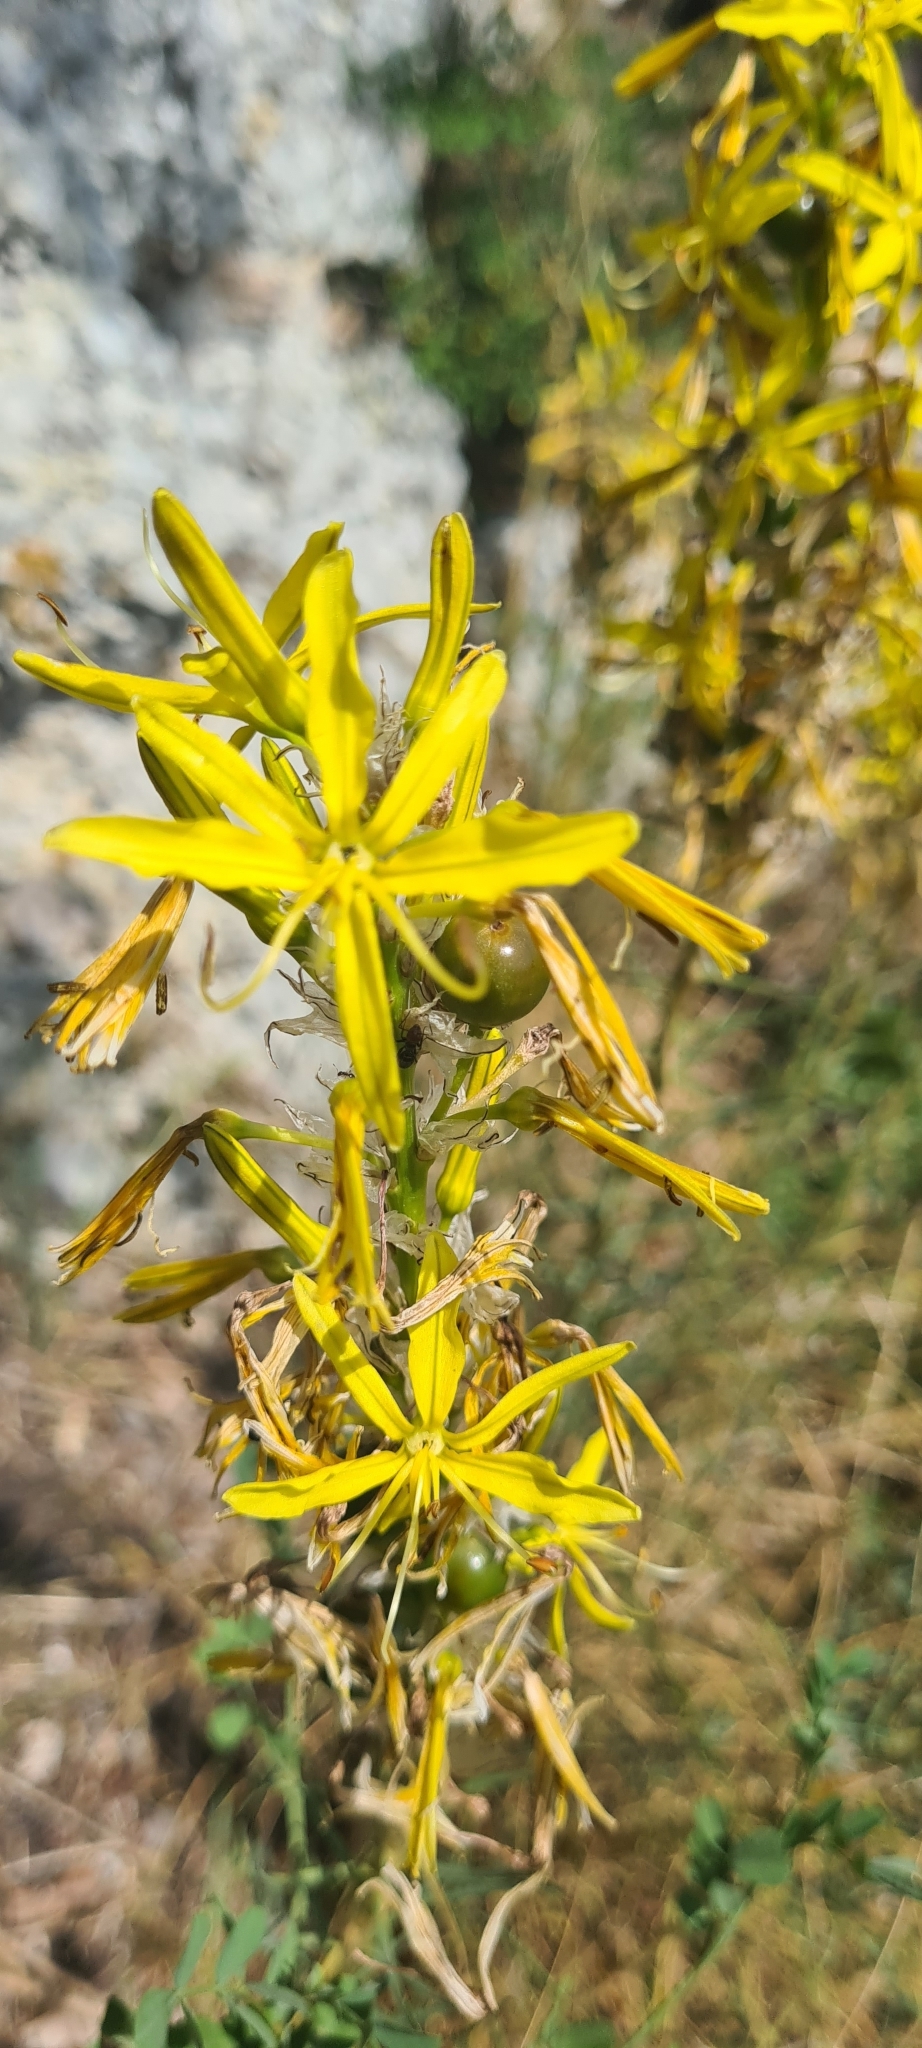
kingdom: Plantae
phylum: Tracheophyta
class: Liliopsida
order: Asparagales
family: Asphodelaceae
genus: Asphodeline
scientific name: Asphodeline lutea
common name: Yellow asphodel
